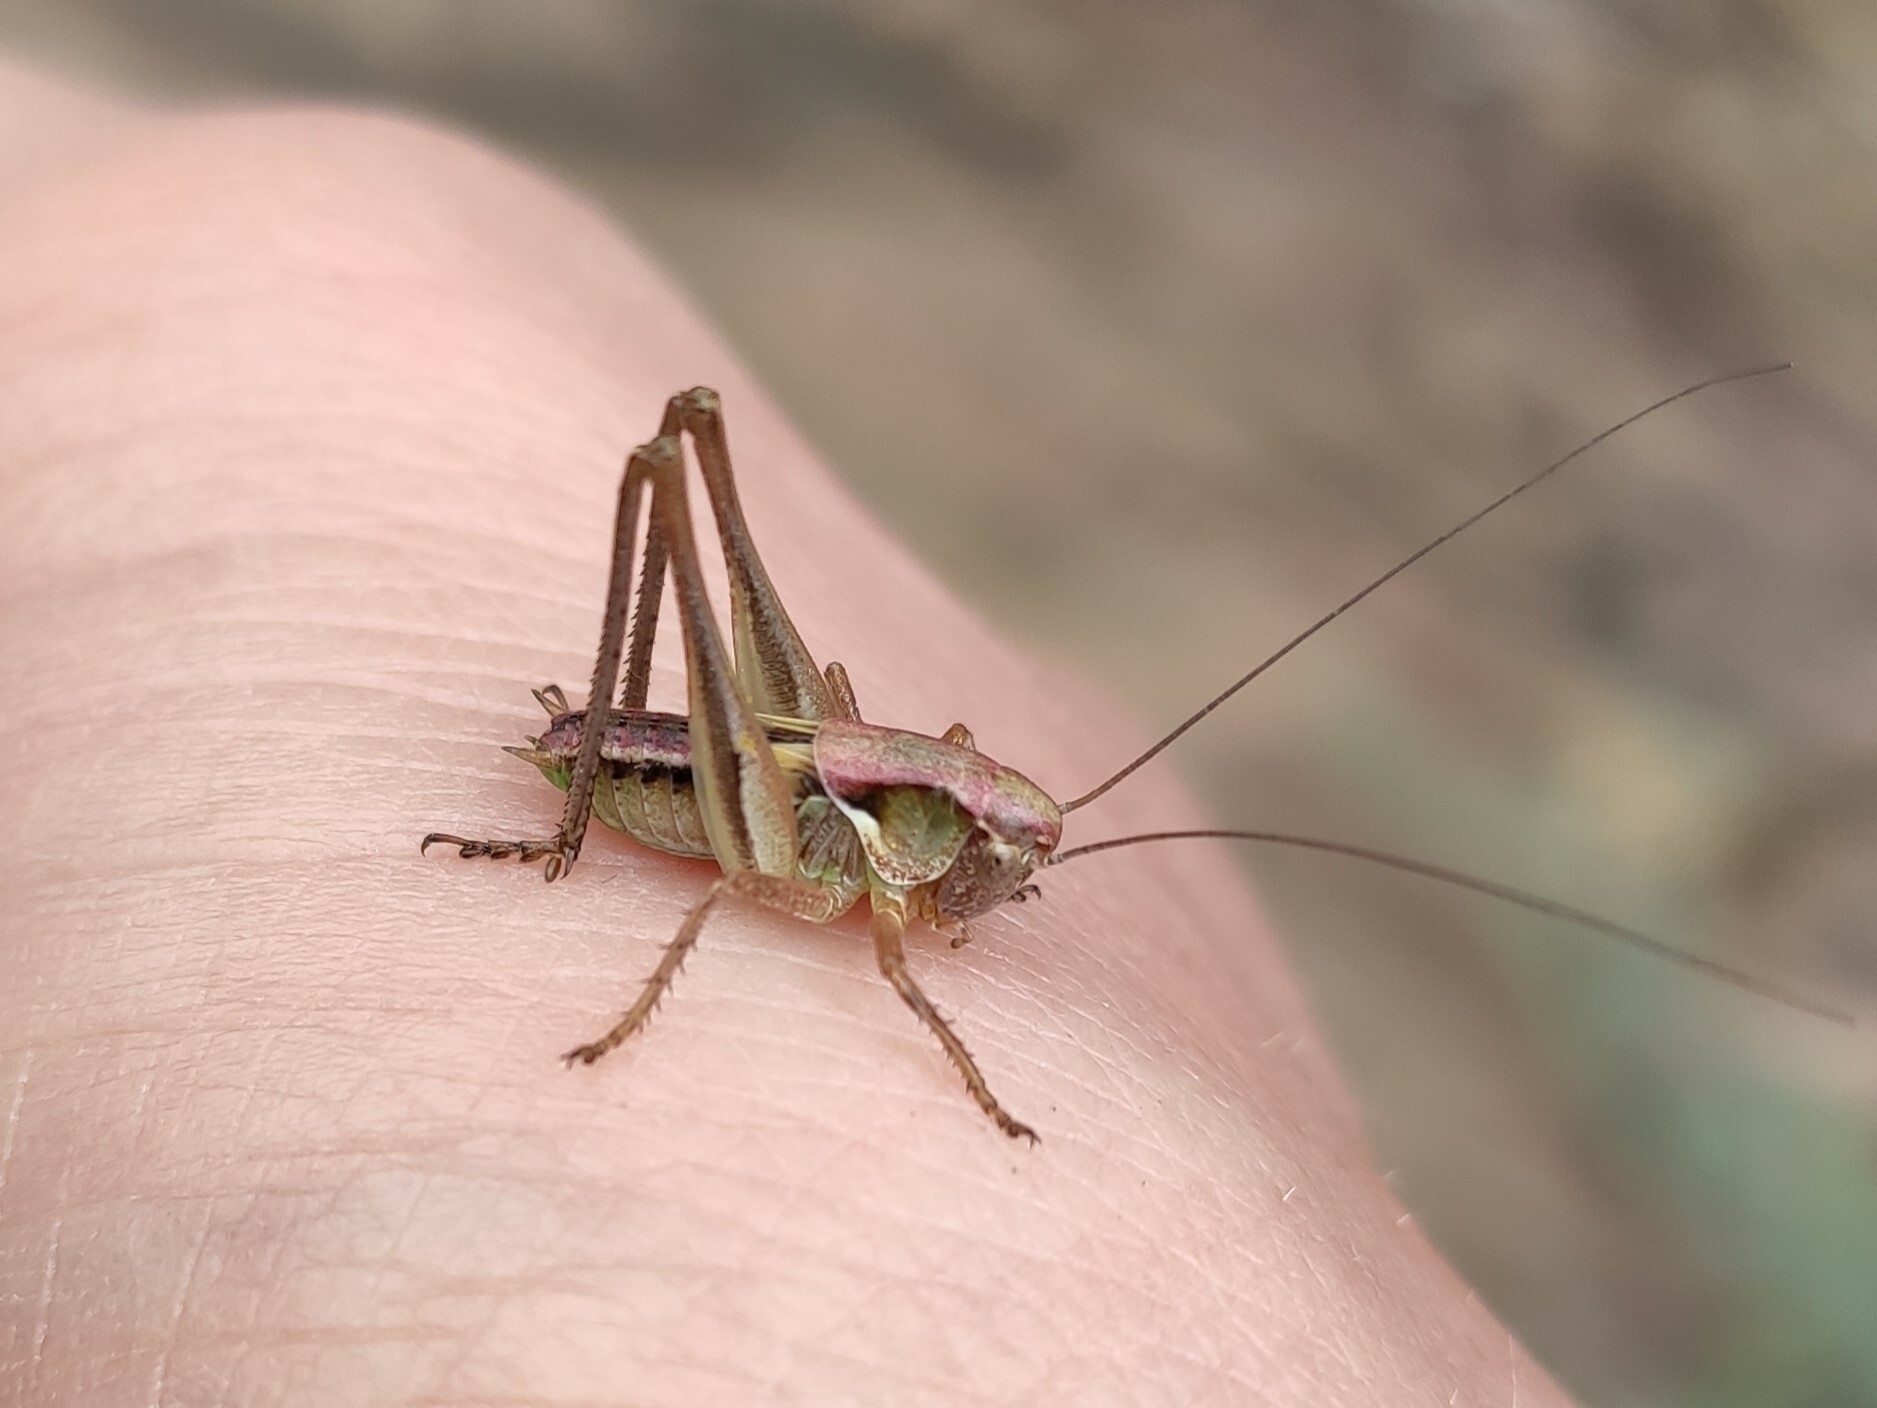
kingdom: Animalia
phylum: Arthropoda
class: Insecta
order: Orthoptera
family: Tettigoniidae
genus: Platycleis
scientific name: Platycleis albopunctata
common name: Grey bush-cricket
